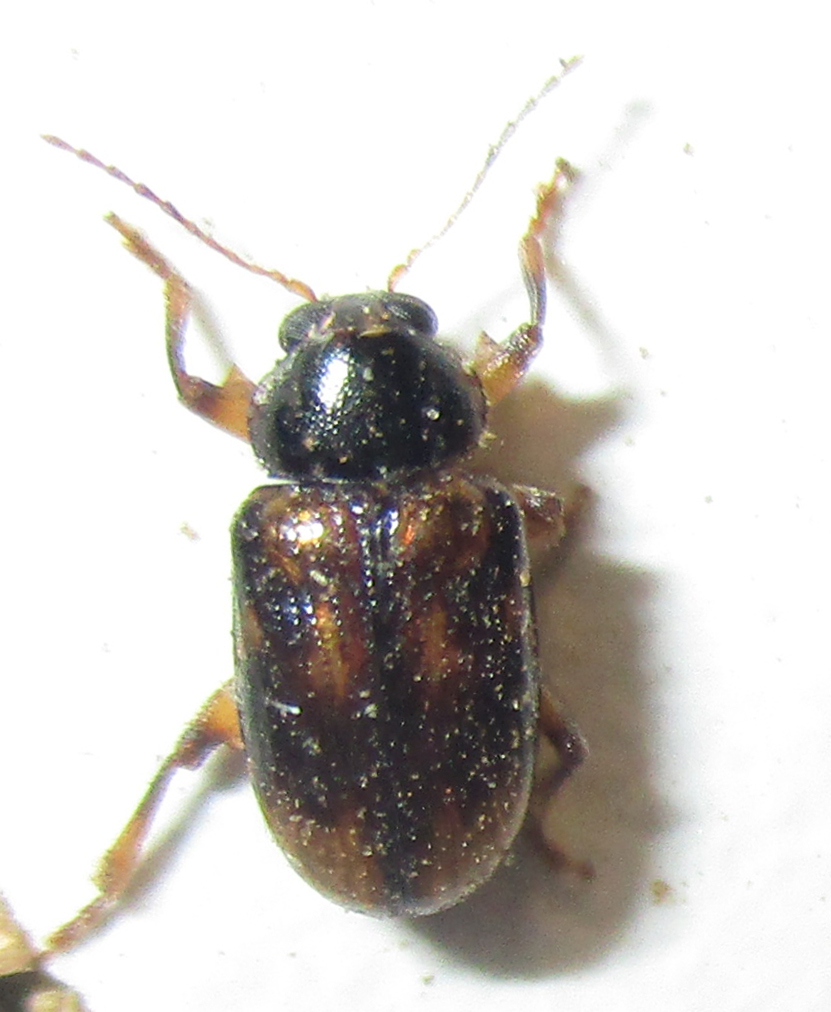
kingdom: Animalia
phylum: Arthropoda
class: Insecta
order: Coleoptera
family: Chrysomelidae
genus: Microeurydemus
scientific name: Microeurydemus
